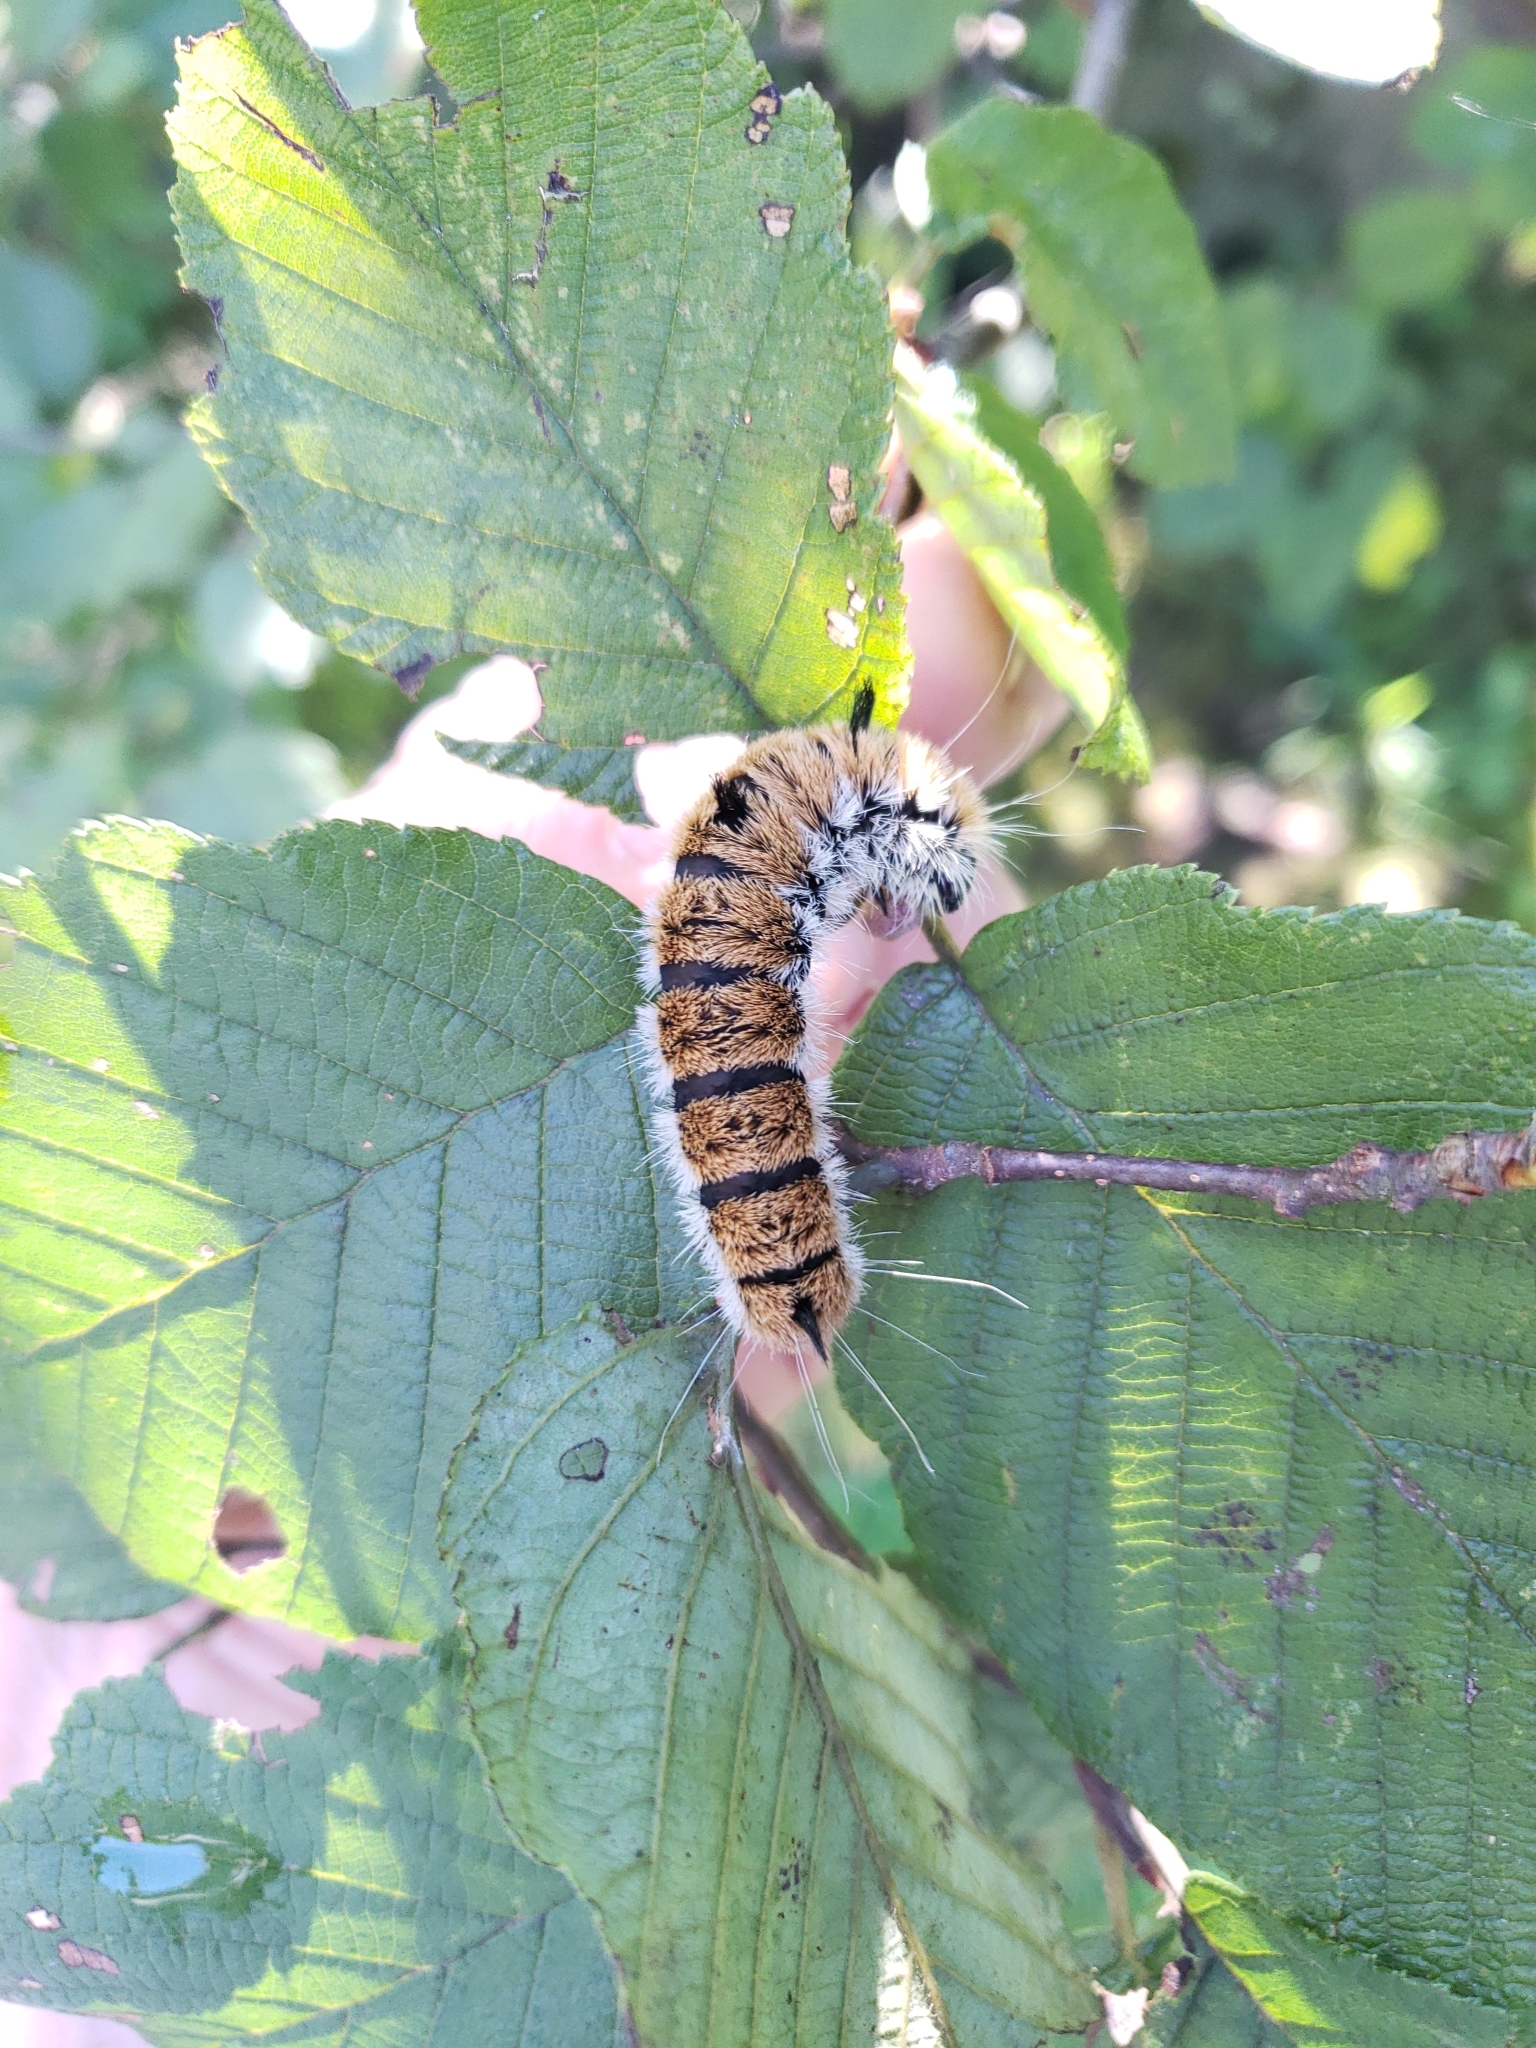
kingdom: Animalia
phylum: Arthropoda
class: Insecta
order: Lepidoptera
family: Noctuidae
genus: Acronicta
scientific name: Acronicta insita
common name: Large gray dagger
